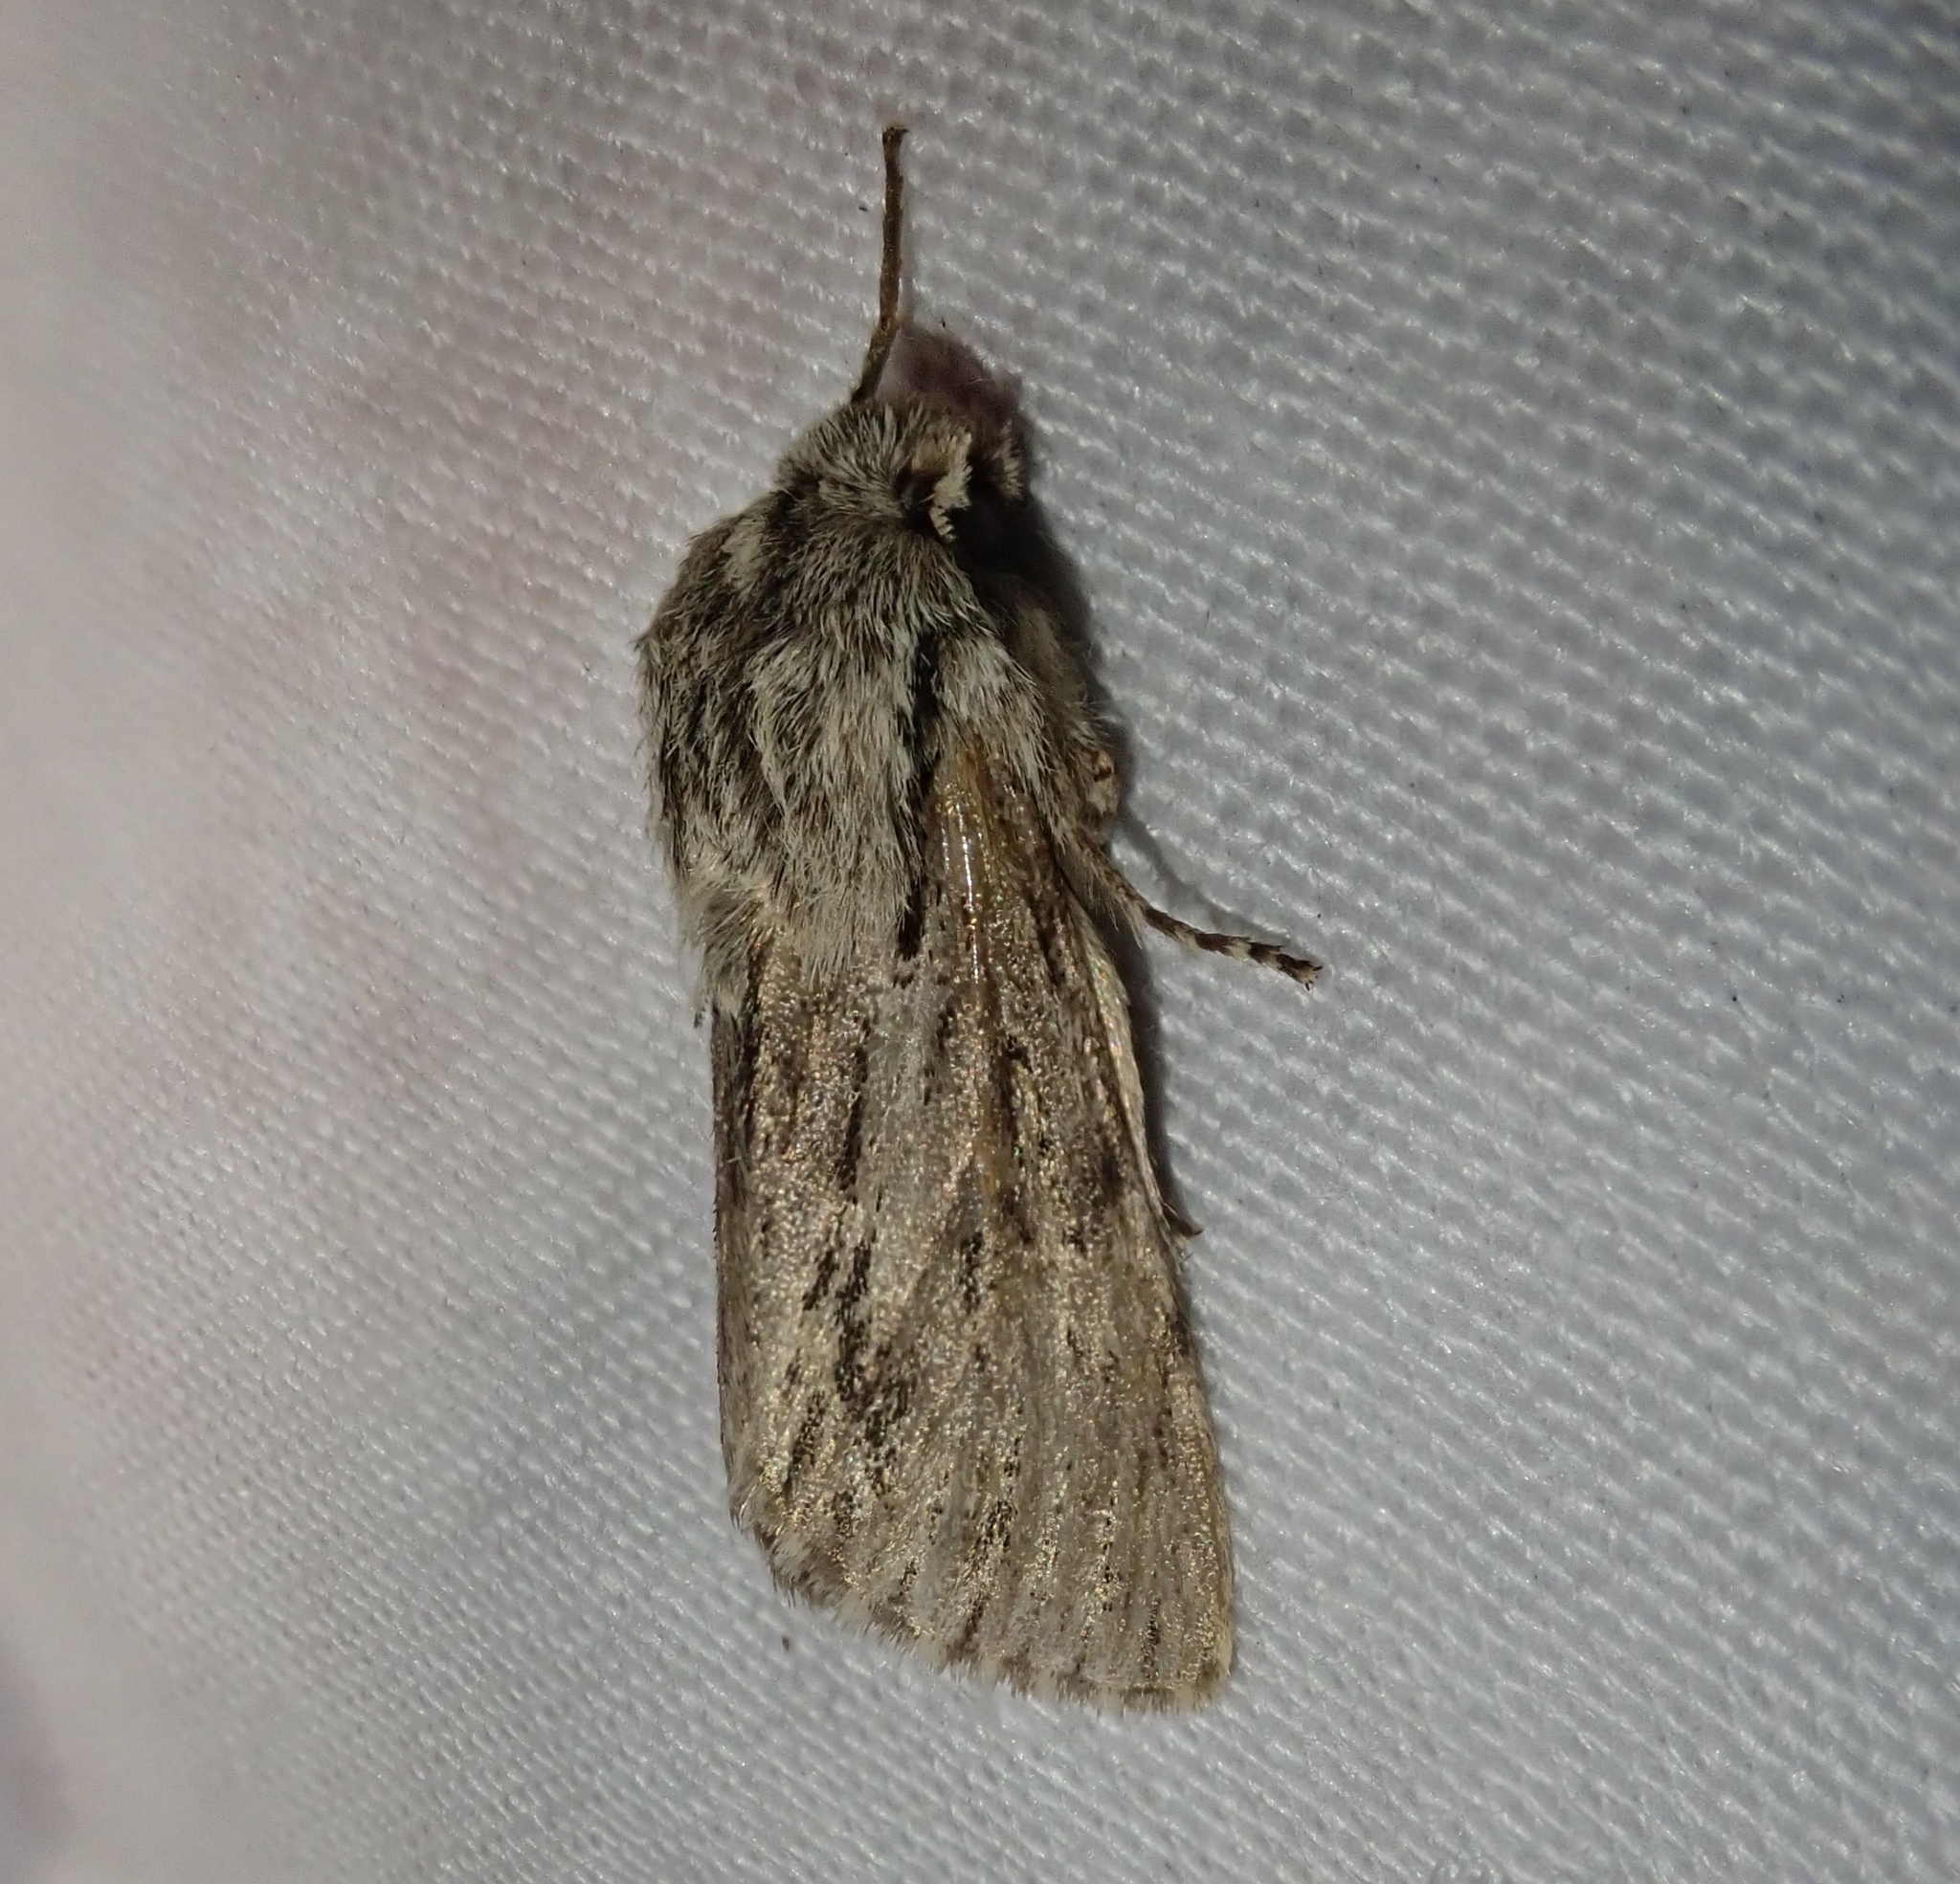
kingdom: Animalia
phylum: Arthropoda
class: Insecta
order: Lepidoptera
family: Noctuidae
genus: Asteroscopus
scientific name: Asteroscopus sphinx
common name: The sprawler
